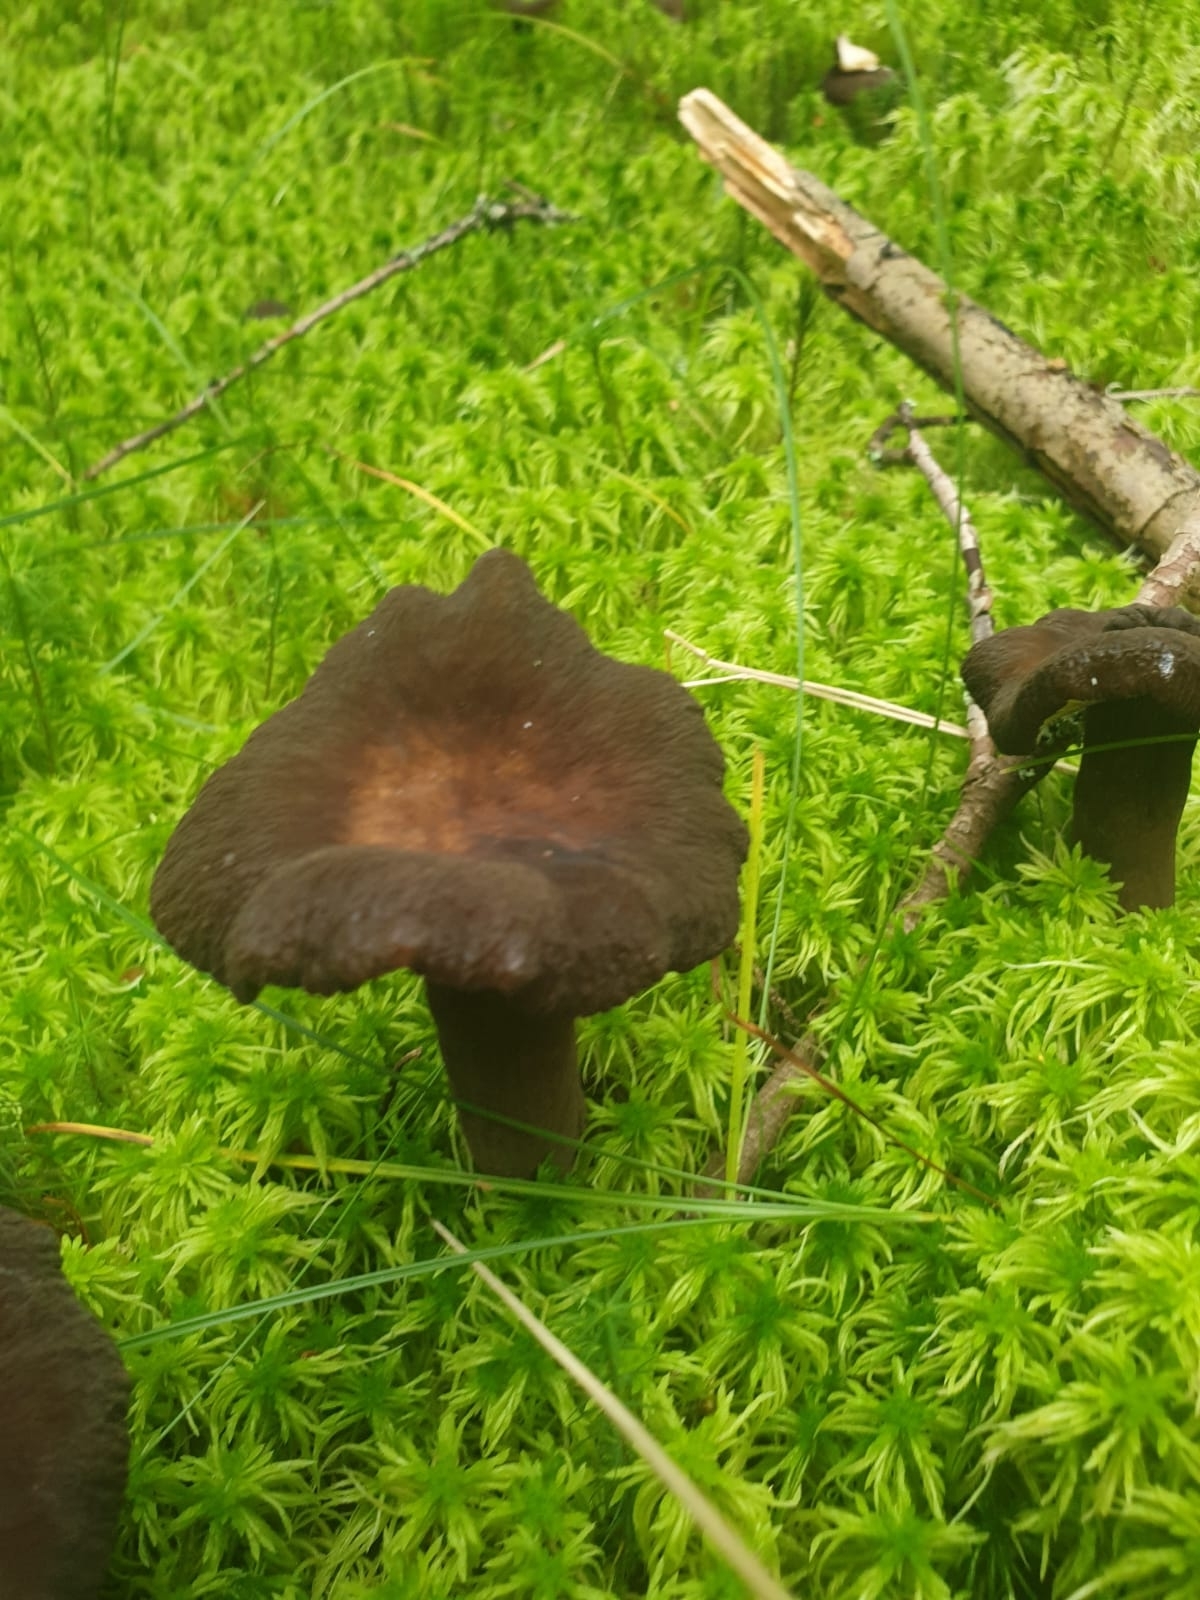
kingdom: Fungi
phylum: Basidiomycota
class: Agaricomycetes
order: Russulales
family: Russulaceae
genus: Lactarius
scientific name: Lactarius lignyotus
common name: Velvet milkcap
